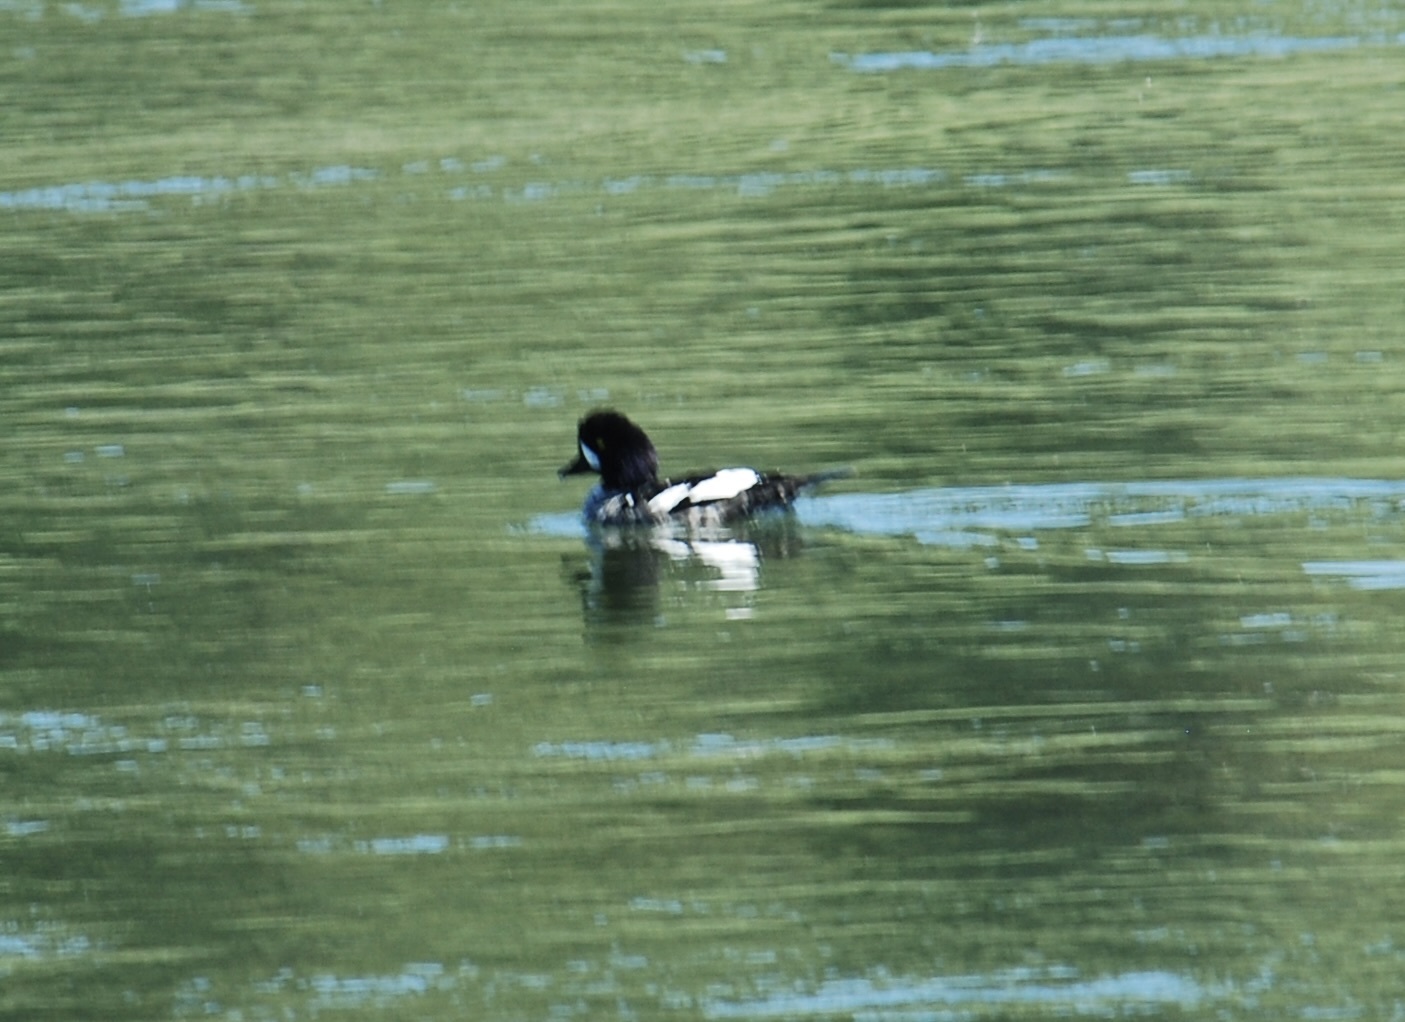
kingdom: Animalia
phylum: Chordata
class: Aves
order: Anseriformes
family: Anatidae
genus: Bucephala
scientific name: Bucephala islandica
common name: Barrow's goldeneye
